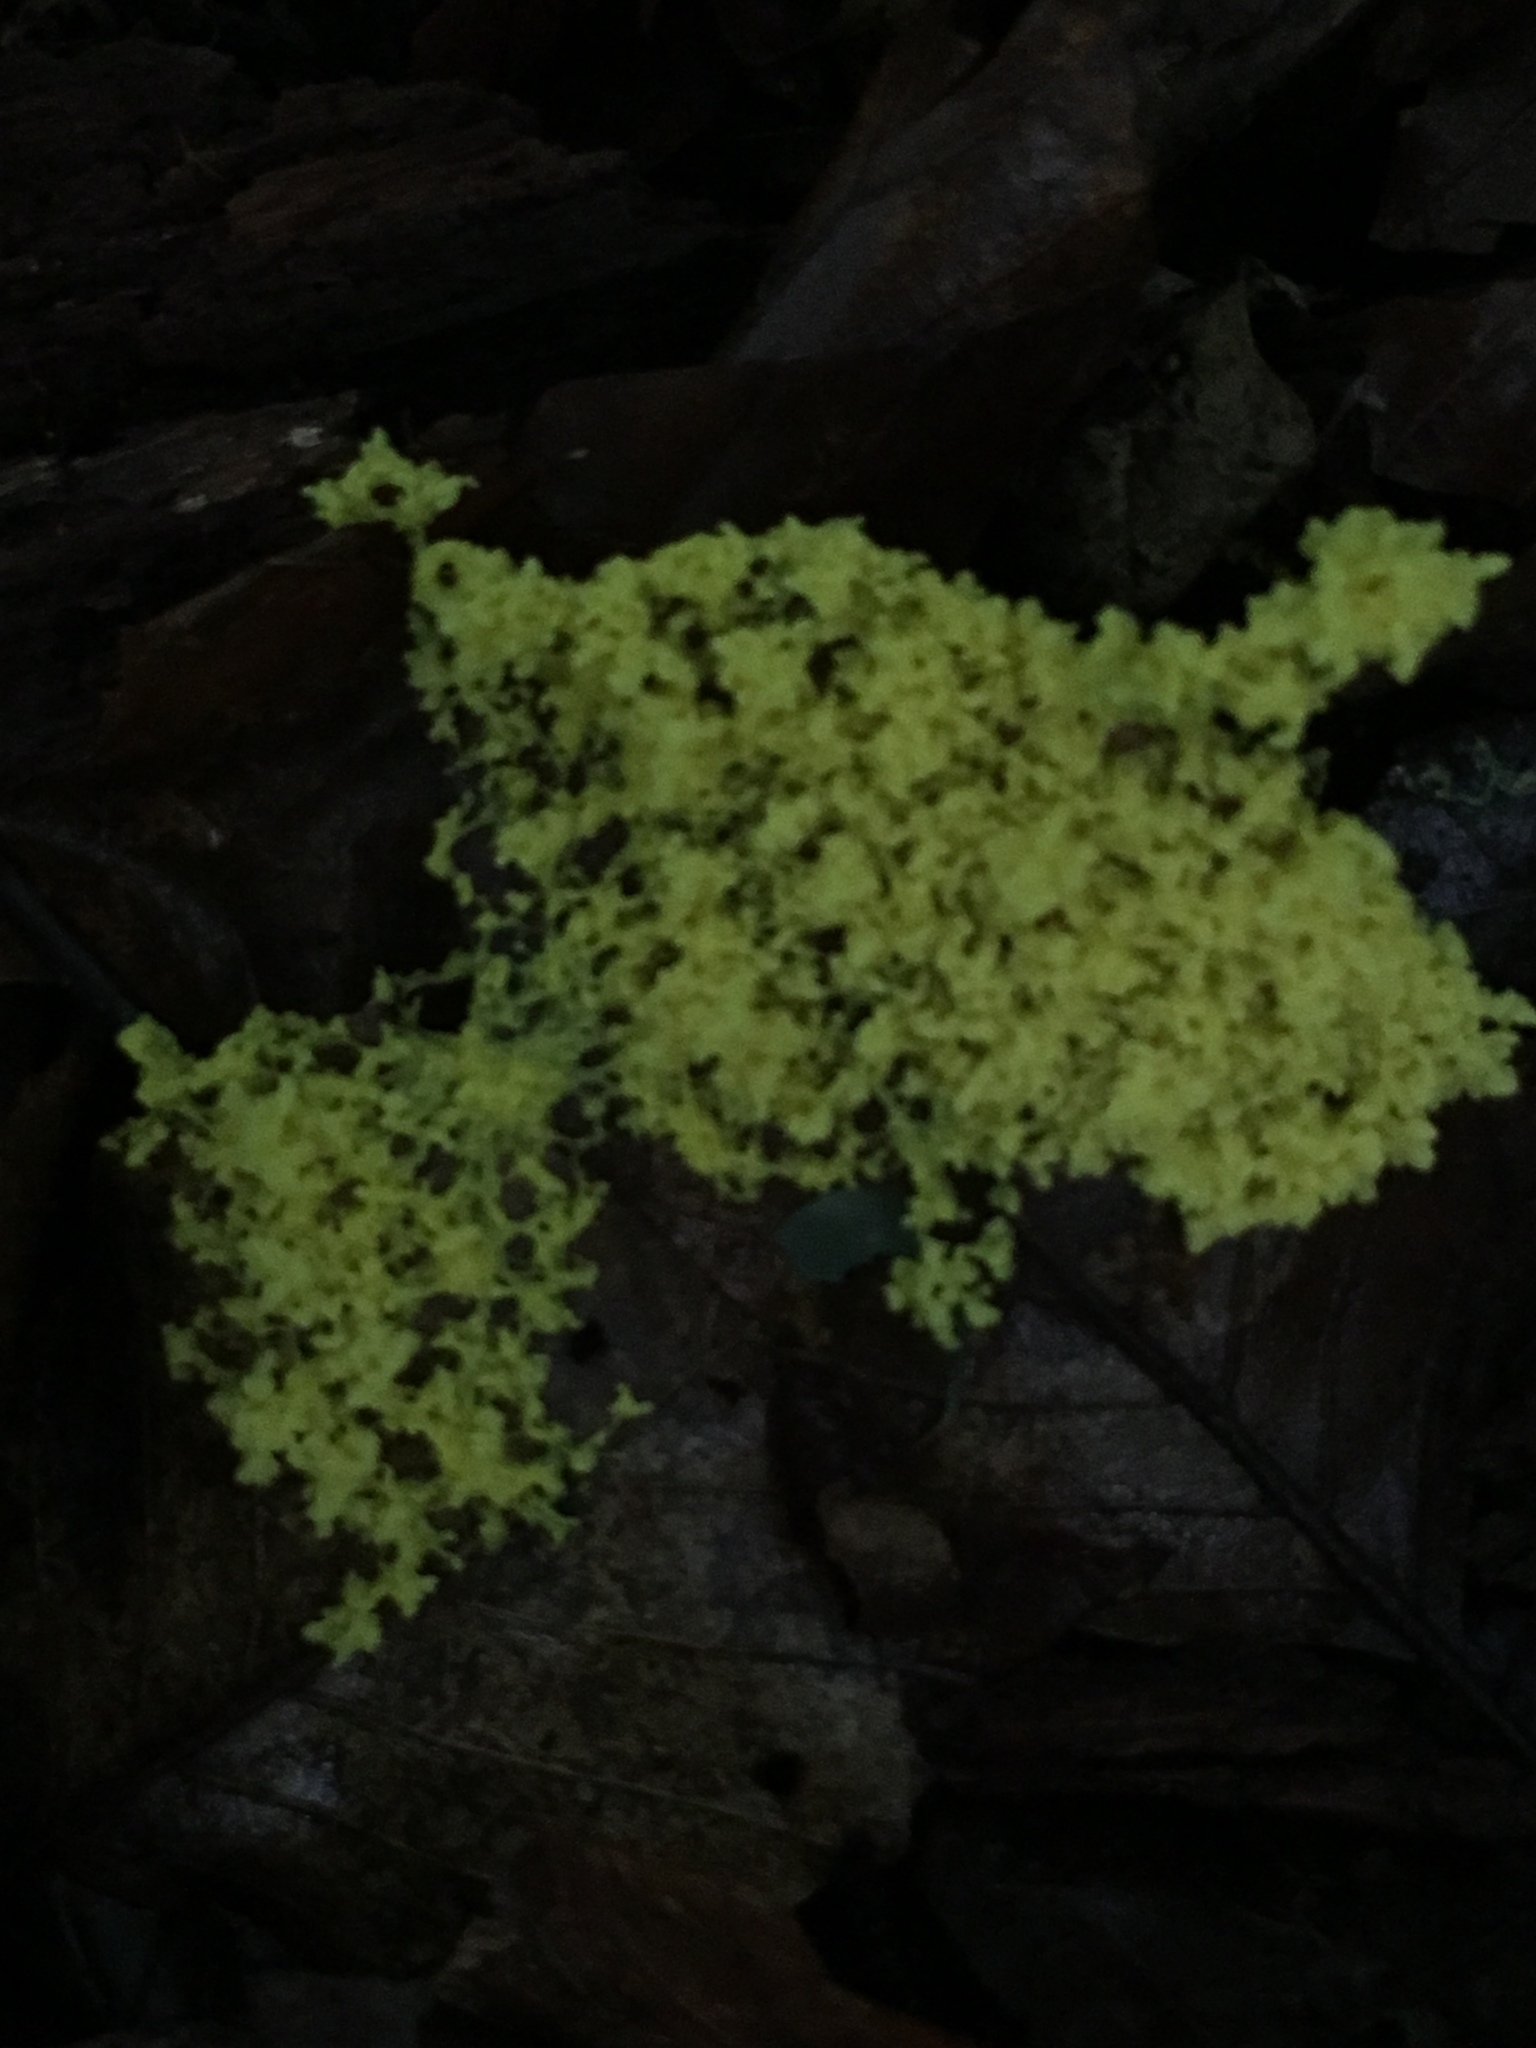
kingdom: Protozoa
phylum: Mycetozoa
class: Myxomycetes
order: Physarales
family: Physaraceae
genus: Fuligo
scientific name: Fuligo septica
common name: Dog vomit slime mold
